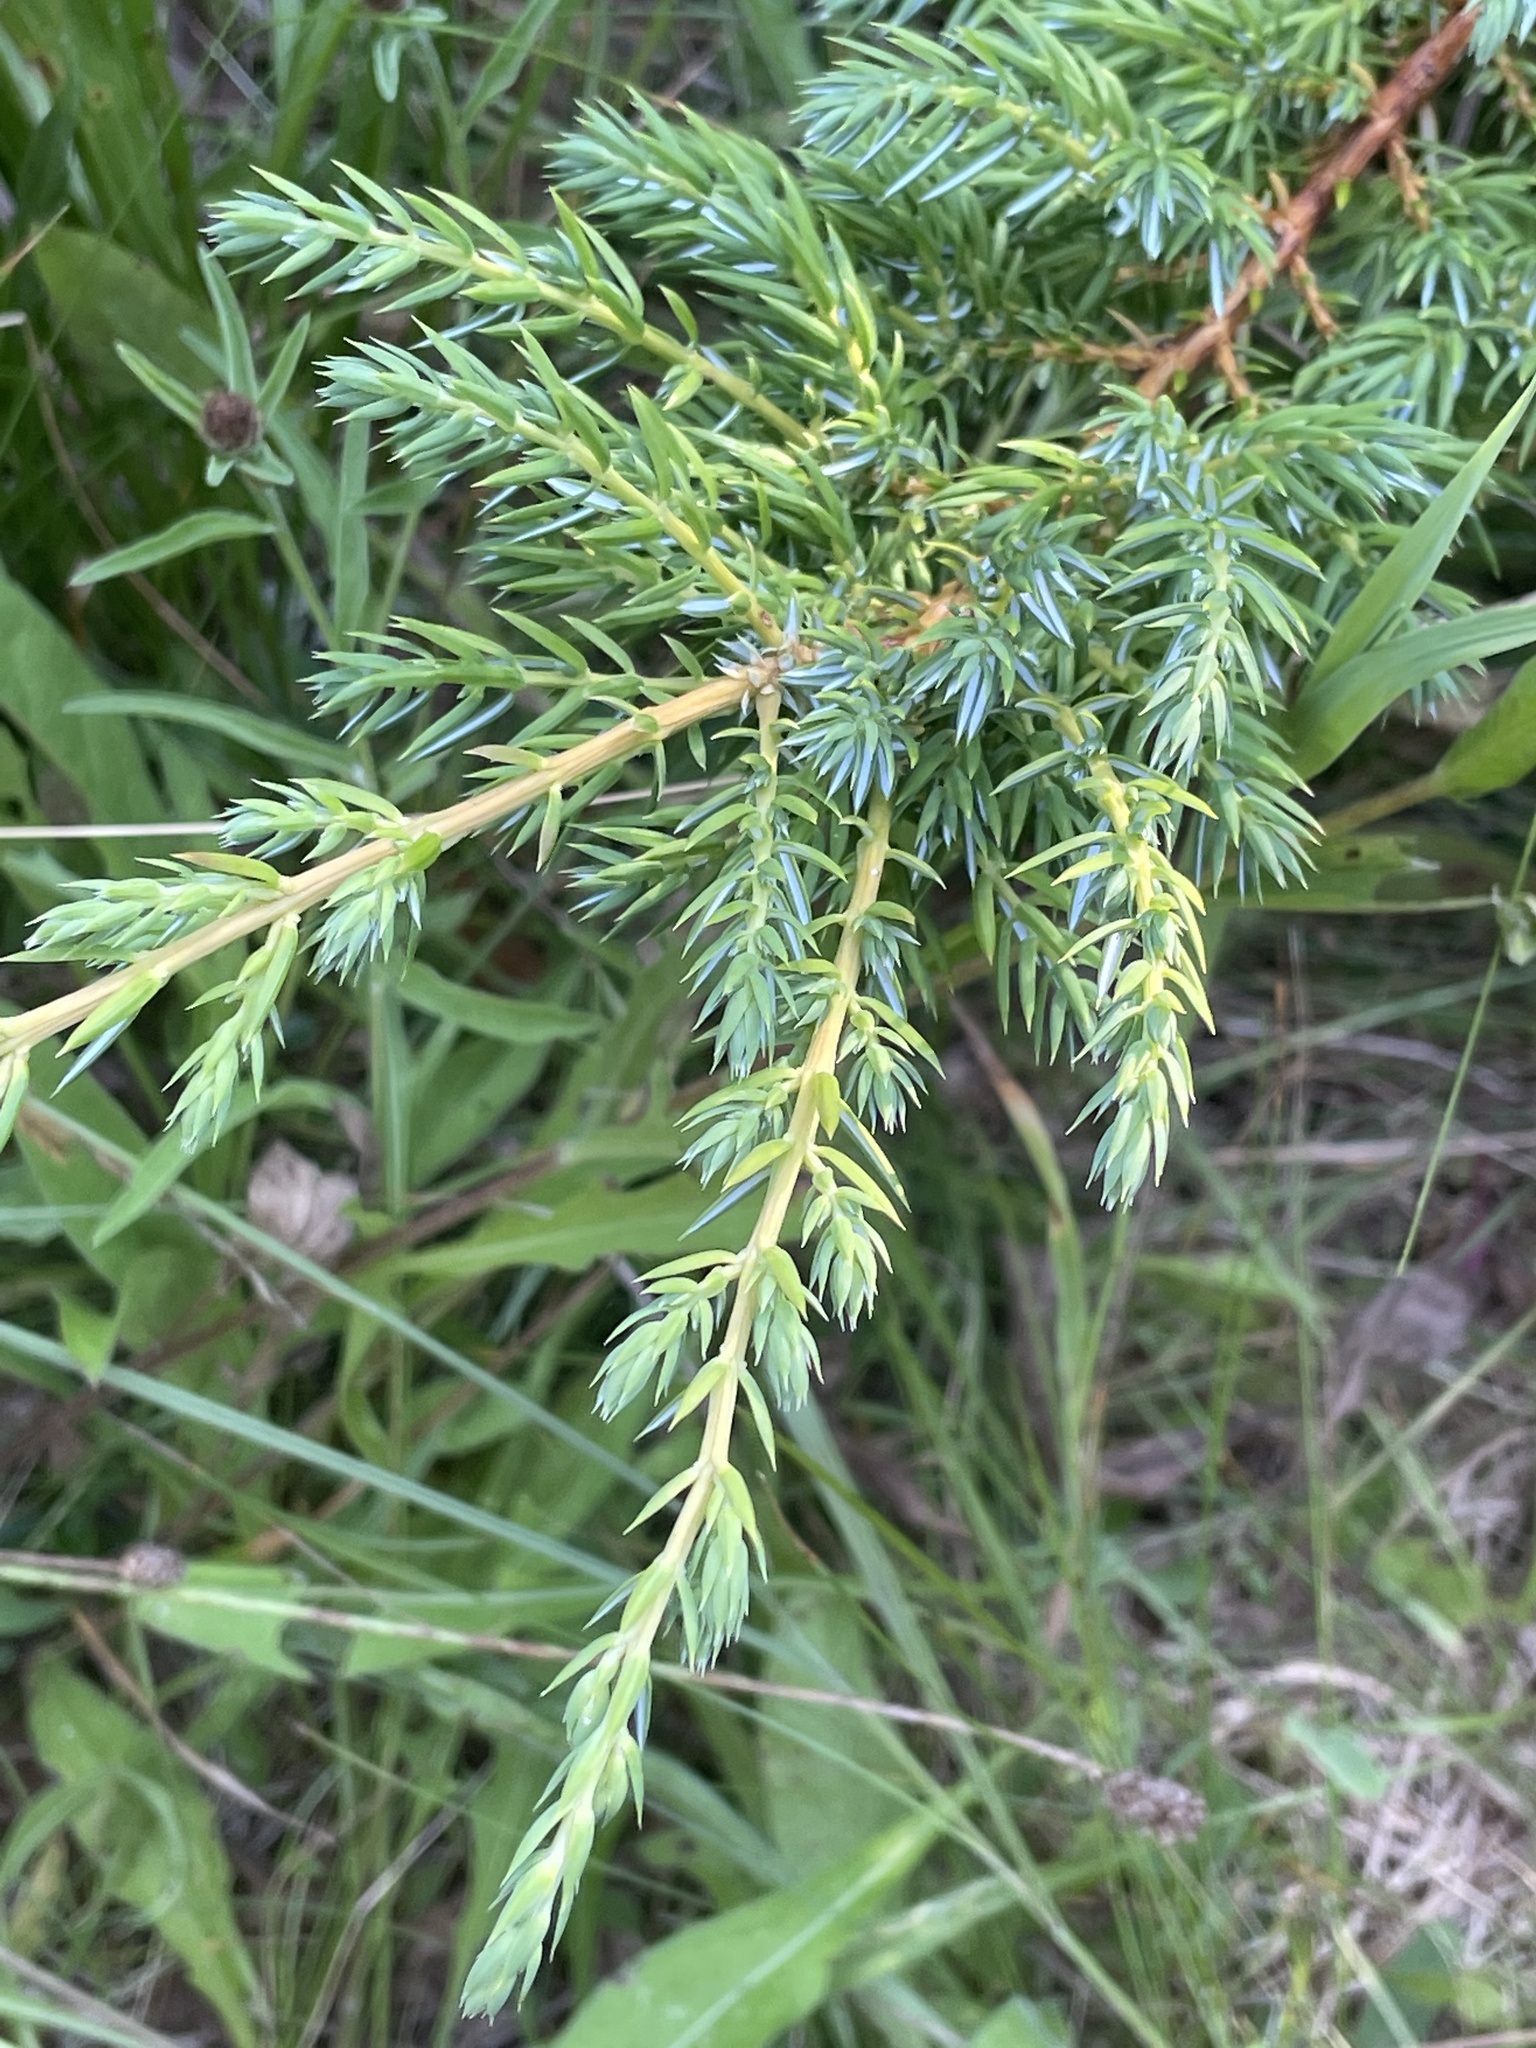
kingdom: Plantae
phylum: Tracheophyta
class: Pinopsida
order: Pinales
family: Cupressaceae
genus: Juniperus
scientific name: Juniperus communis
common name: Common juniper
